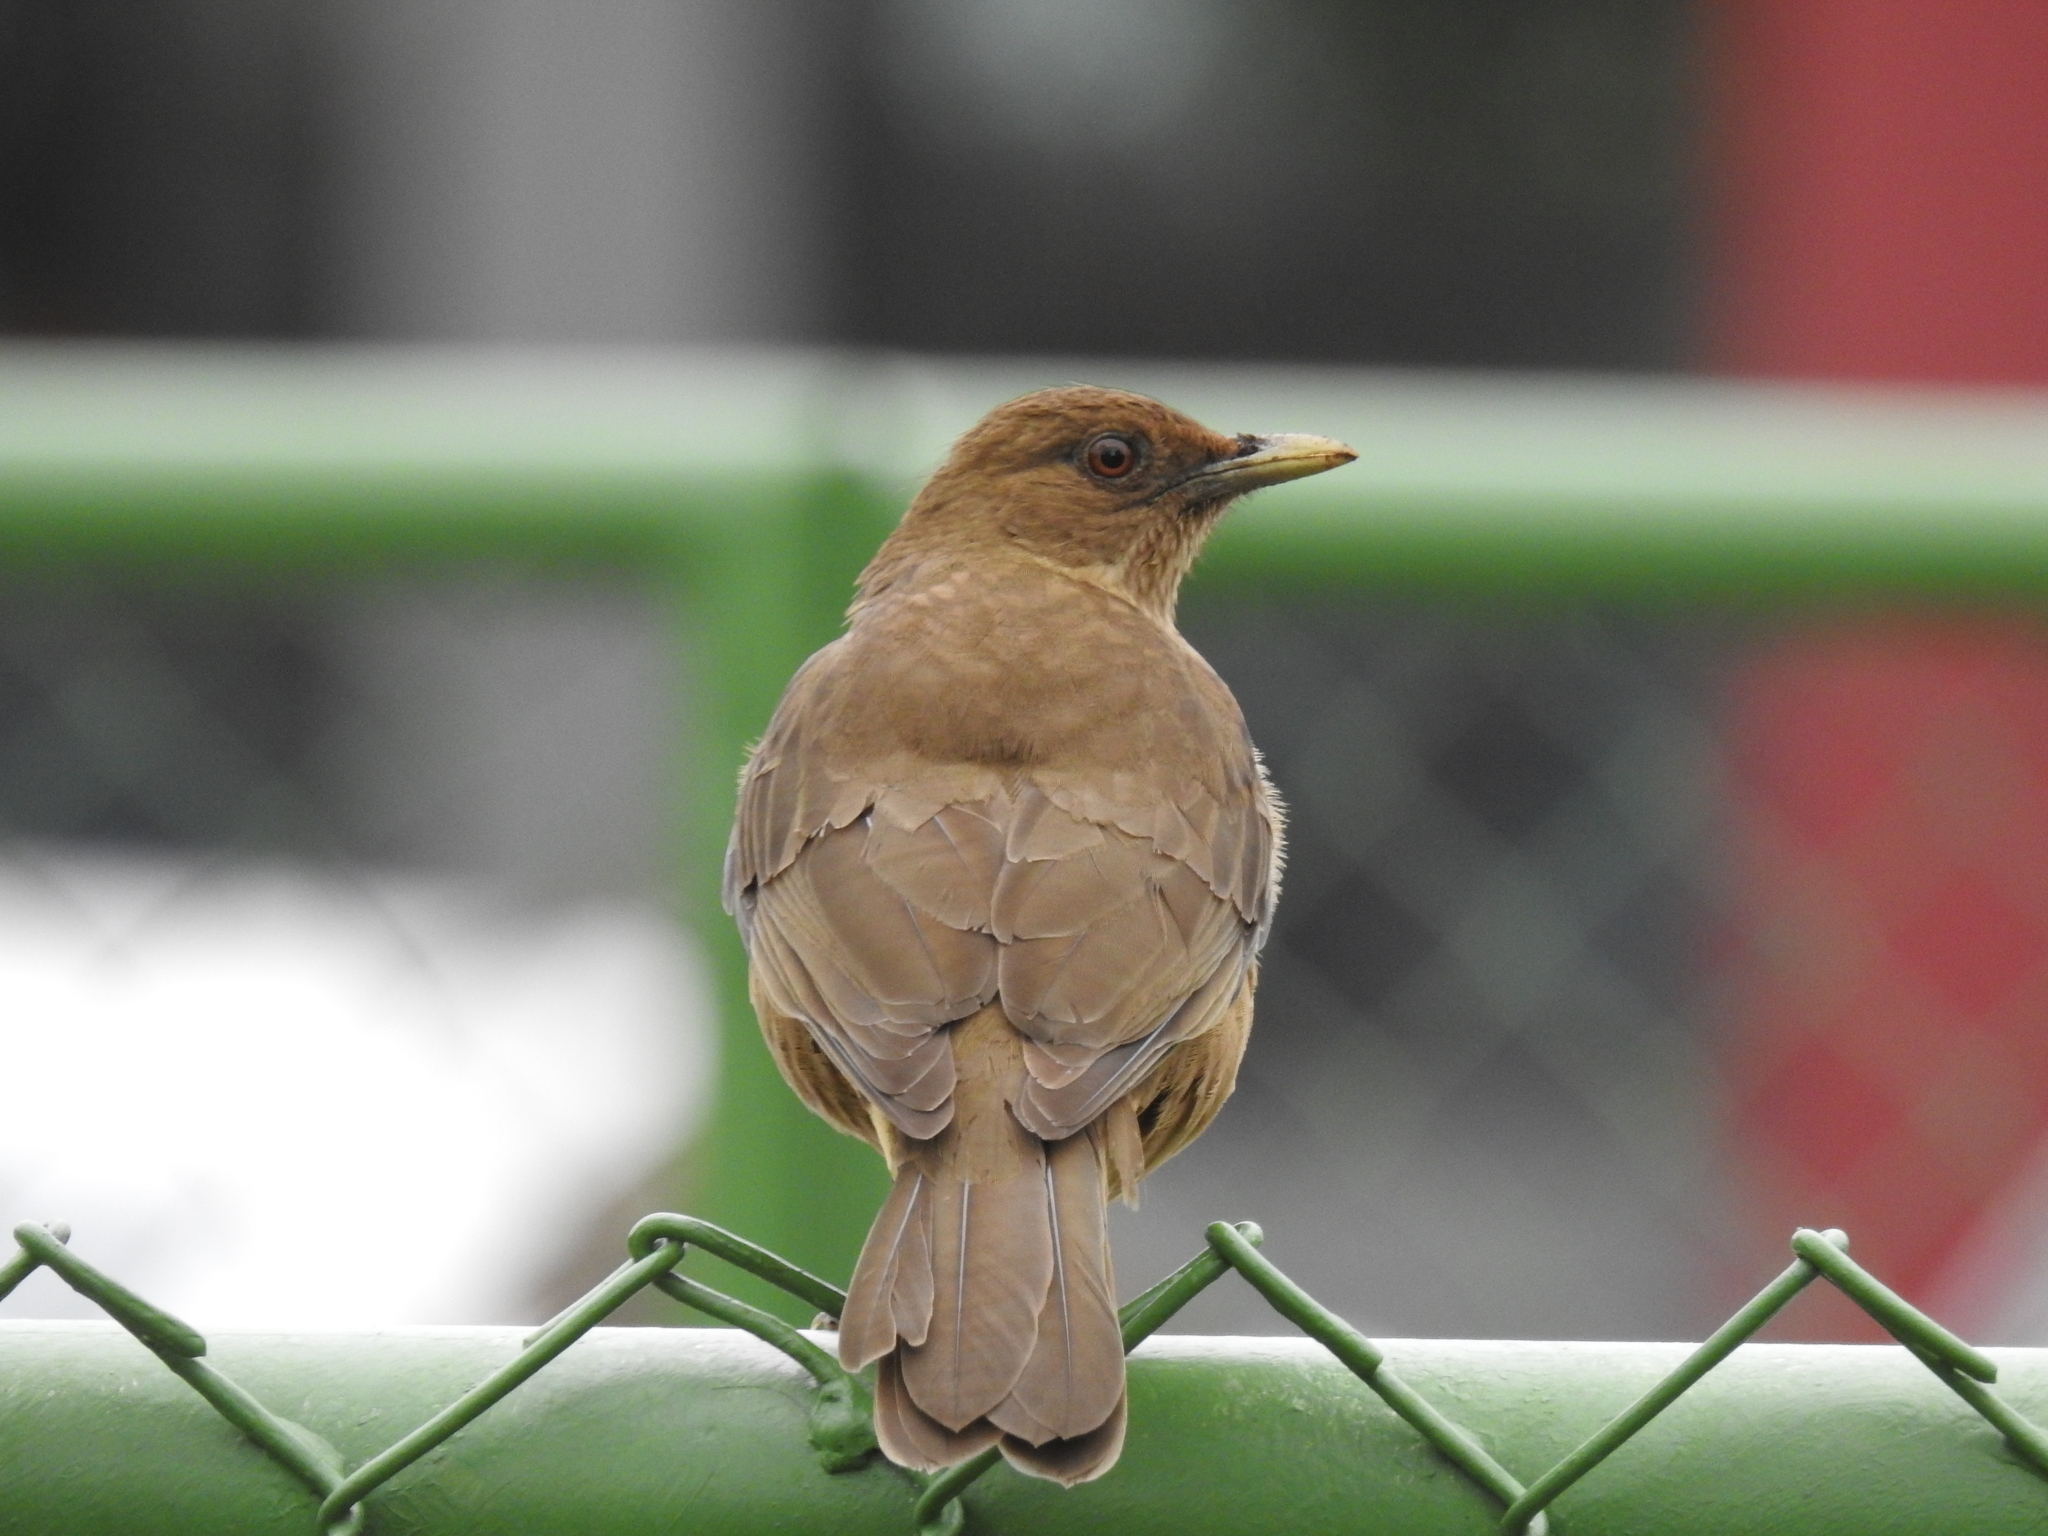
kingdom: Animalia
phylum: Chordata
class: Aves
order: Passeriformes
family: Turdidae
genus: Turdus
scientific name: Turdus grayi
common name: Clay-colored thrush
